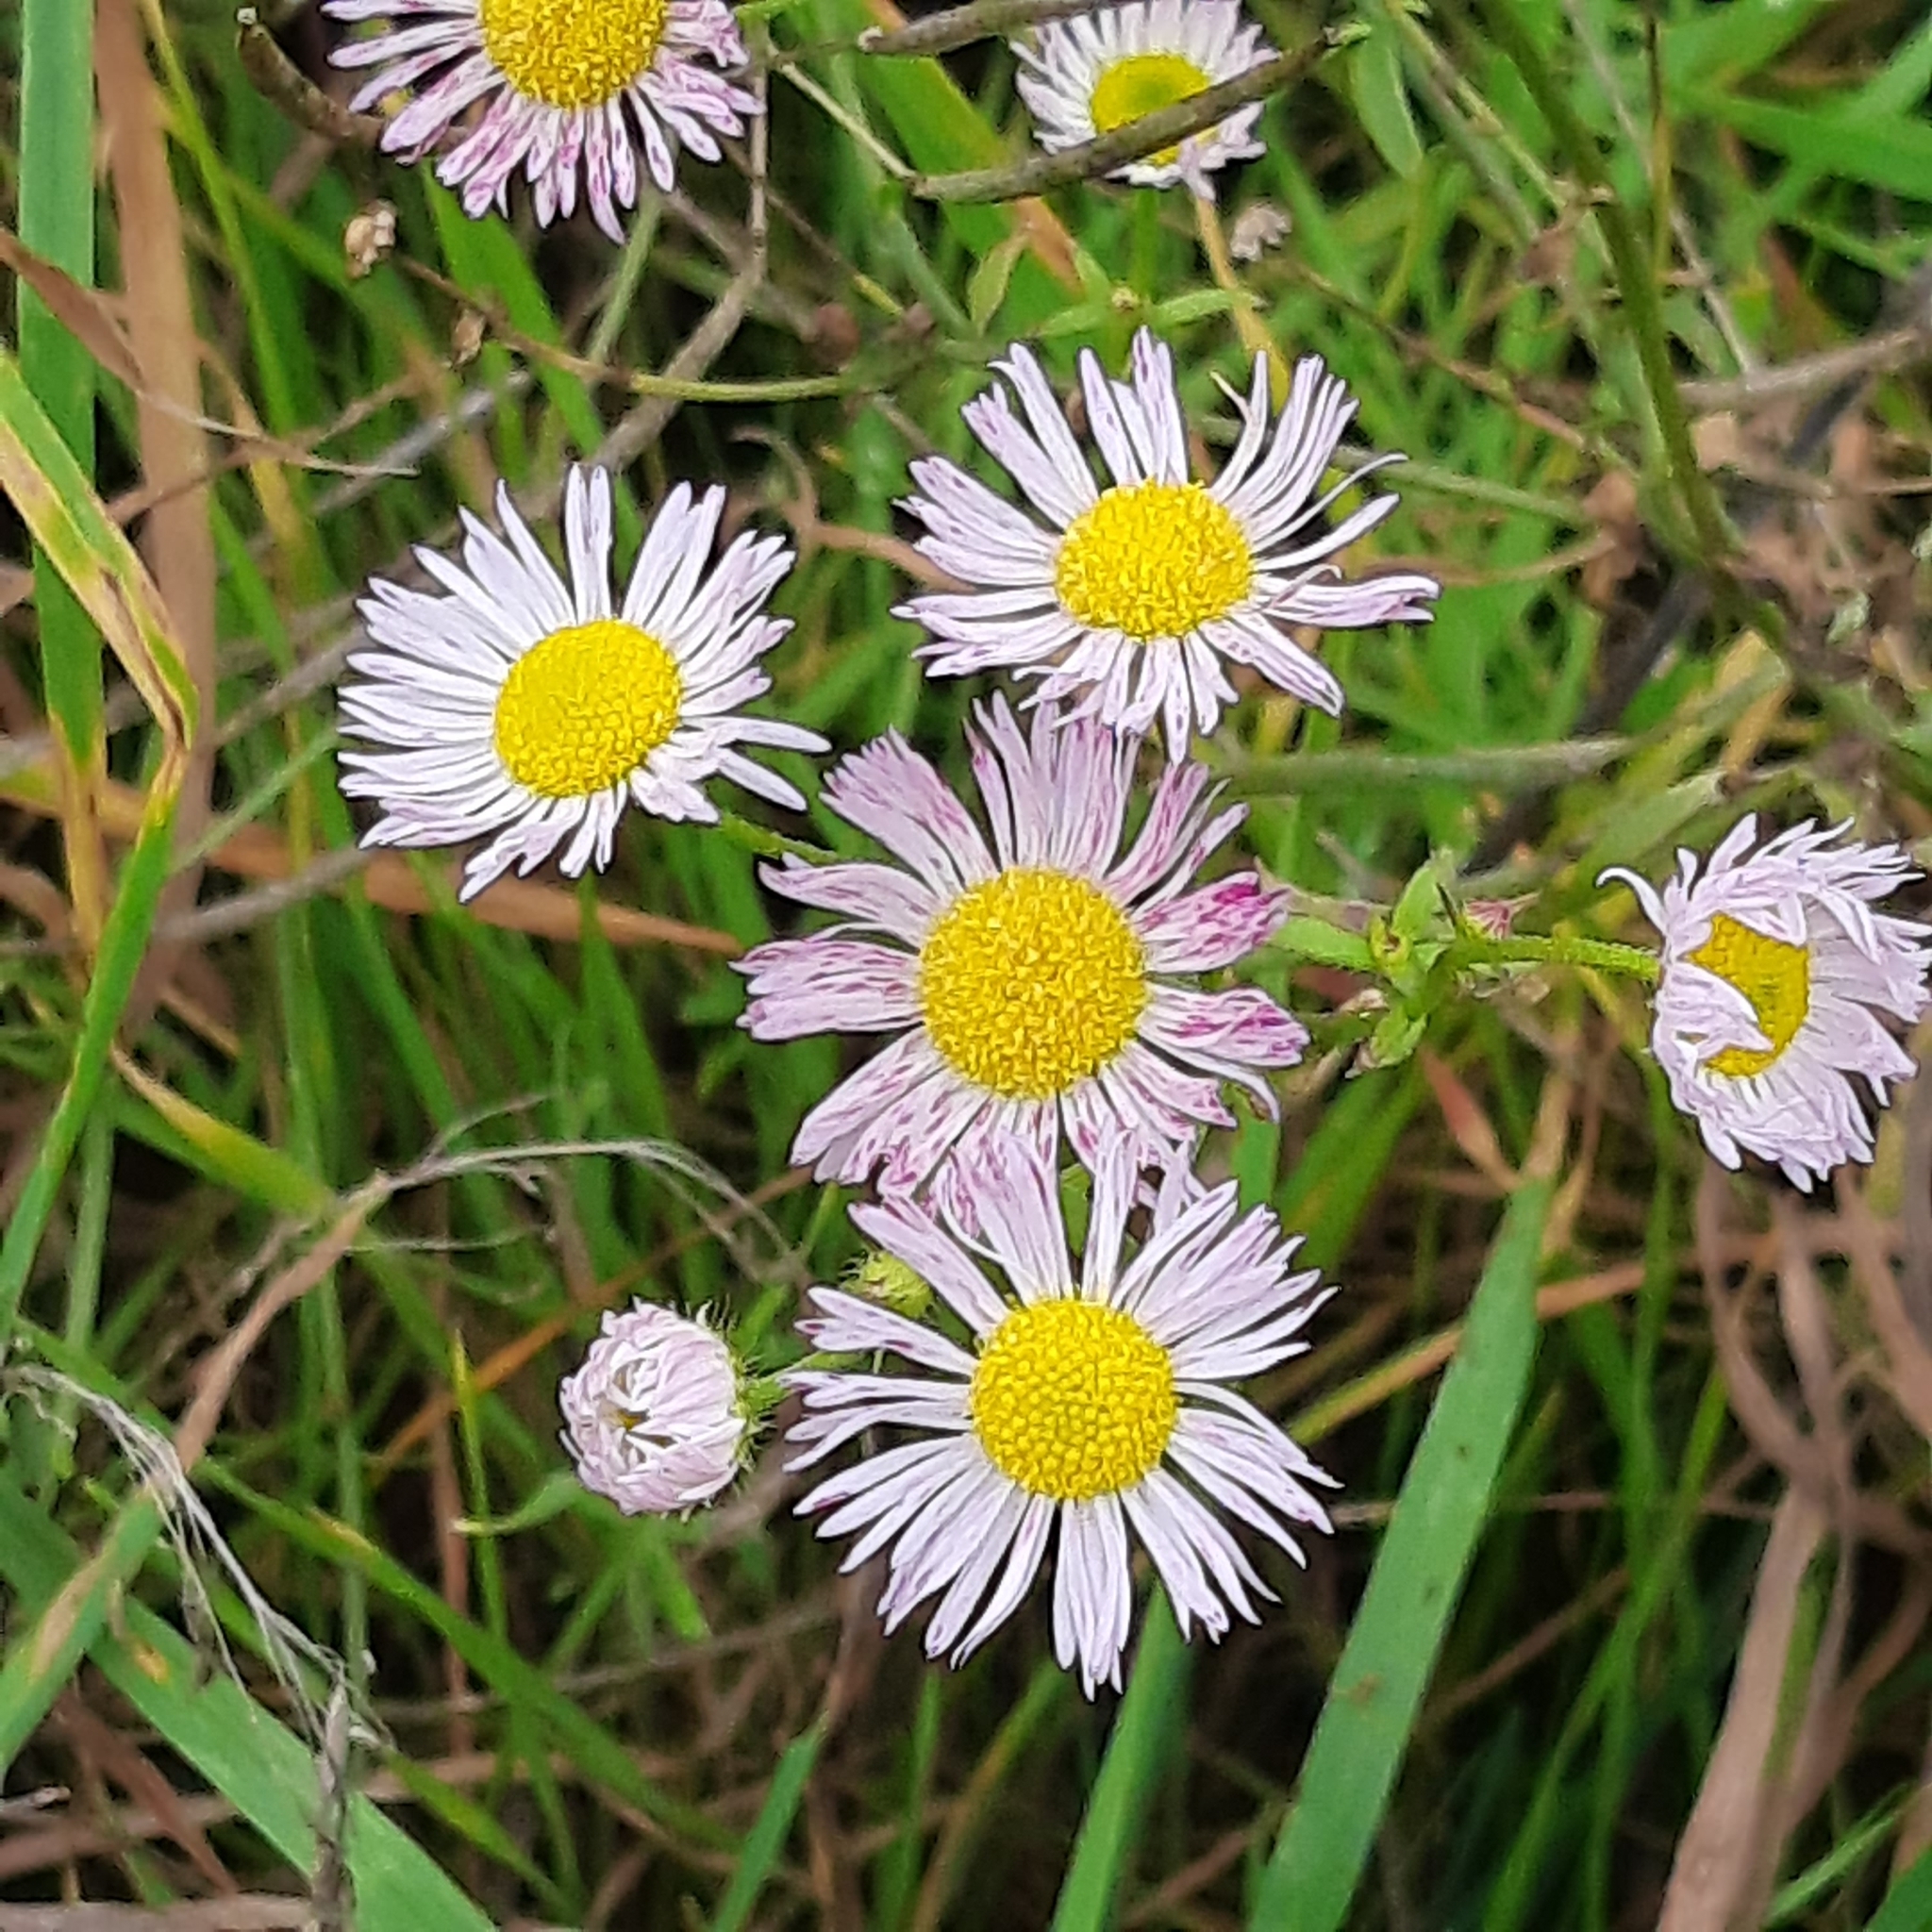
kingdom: Plantae
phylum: Tracheophyta
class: Magnoliopsida
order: Asterales
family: Asteraceae
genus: Erigeron
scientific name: Erigeron annuus
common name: Tall fleabane
